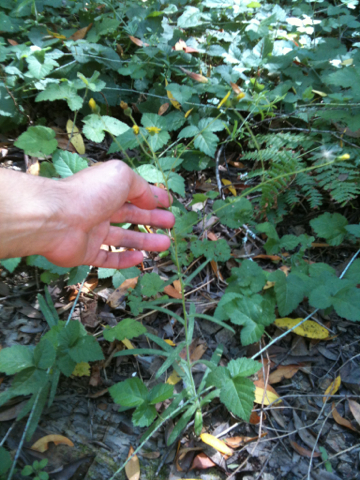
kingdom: Plantae
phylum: Tracheophyta
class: Magnoliopsida
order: Asterales
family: Asteraceae
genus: Anisocarpus
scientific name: Anisocarpus madioides
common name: Woodland madia
